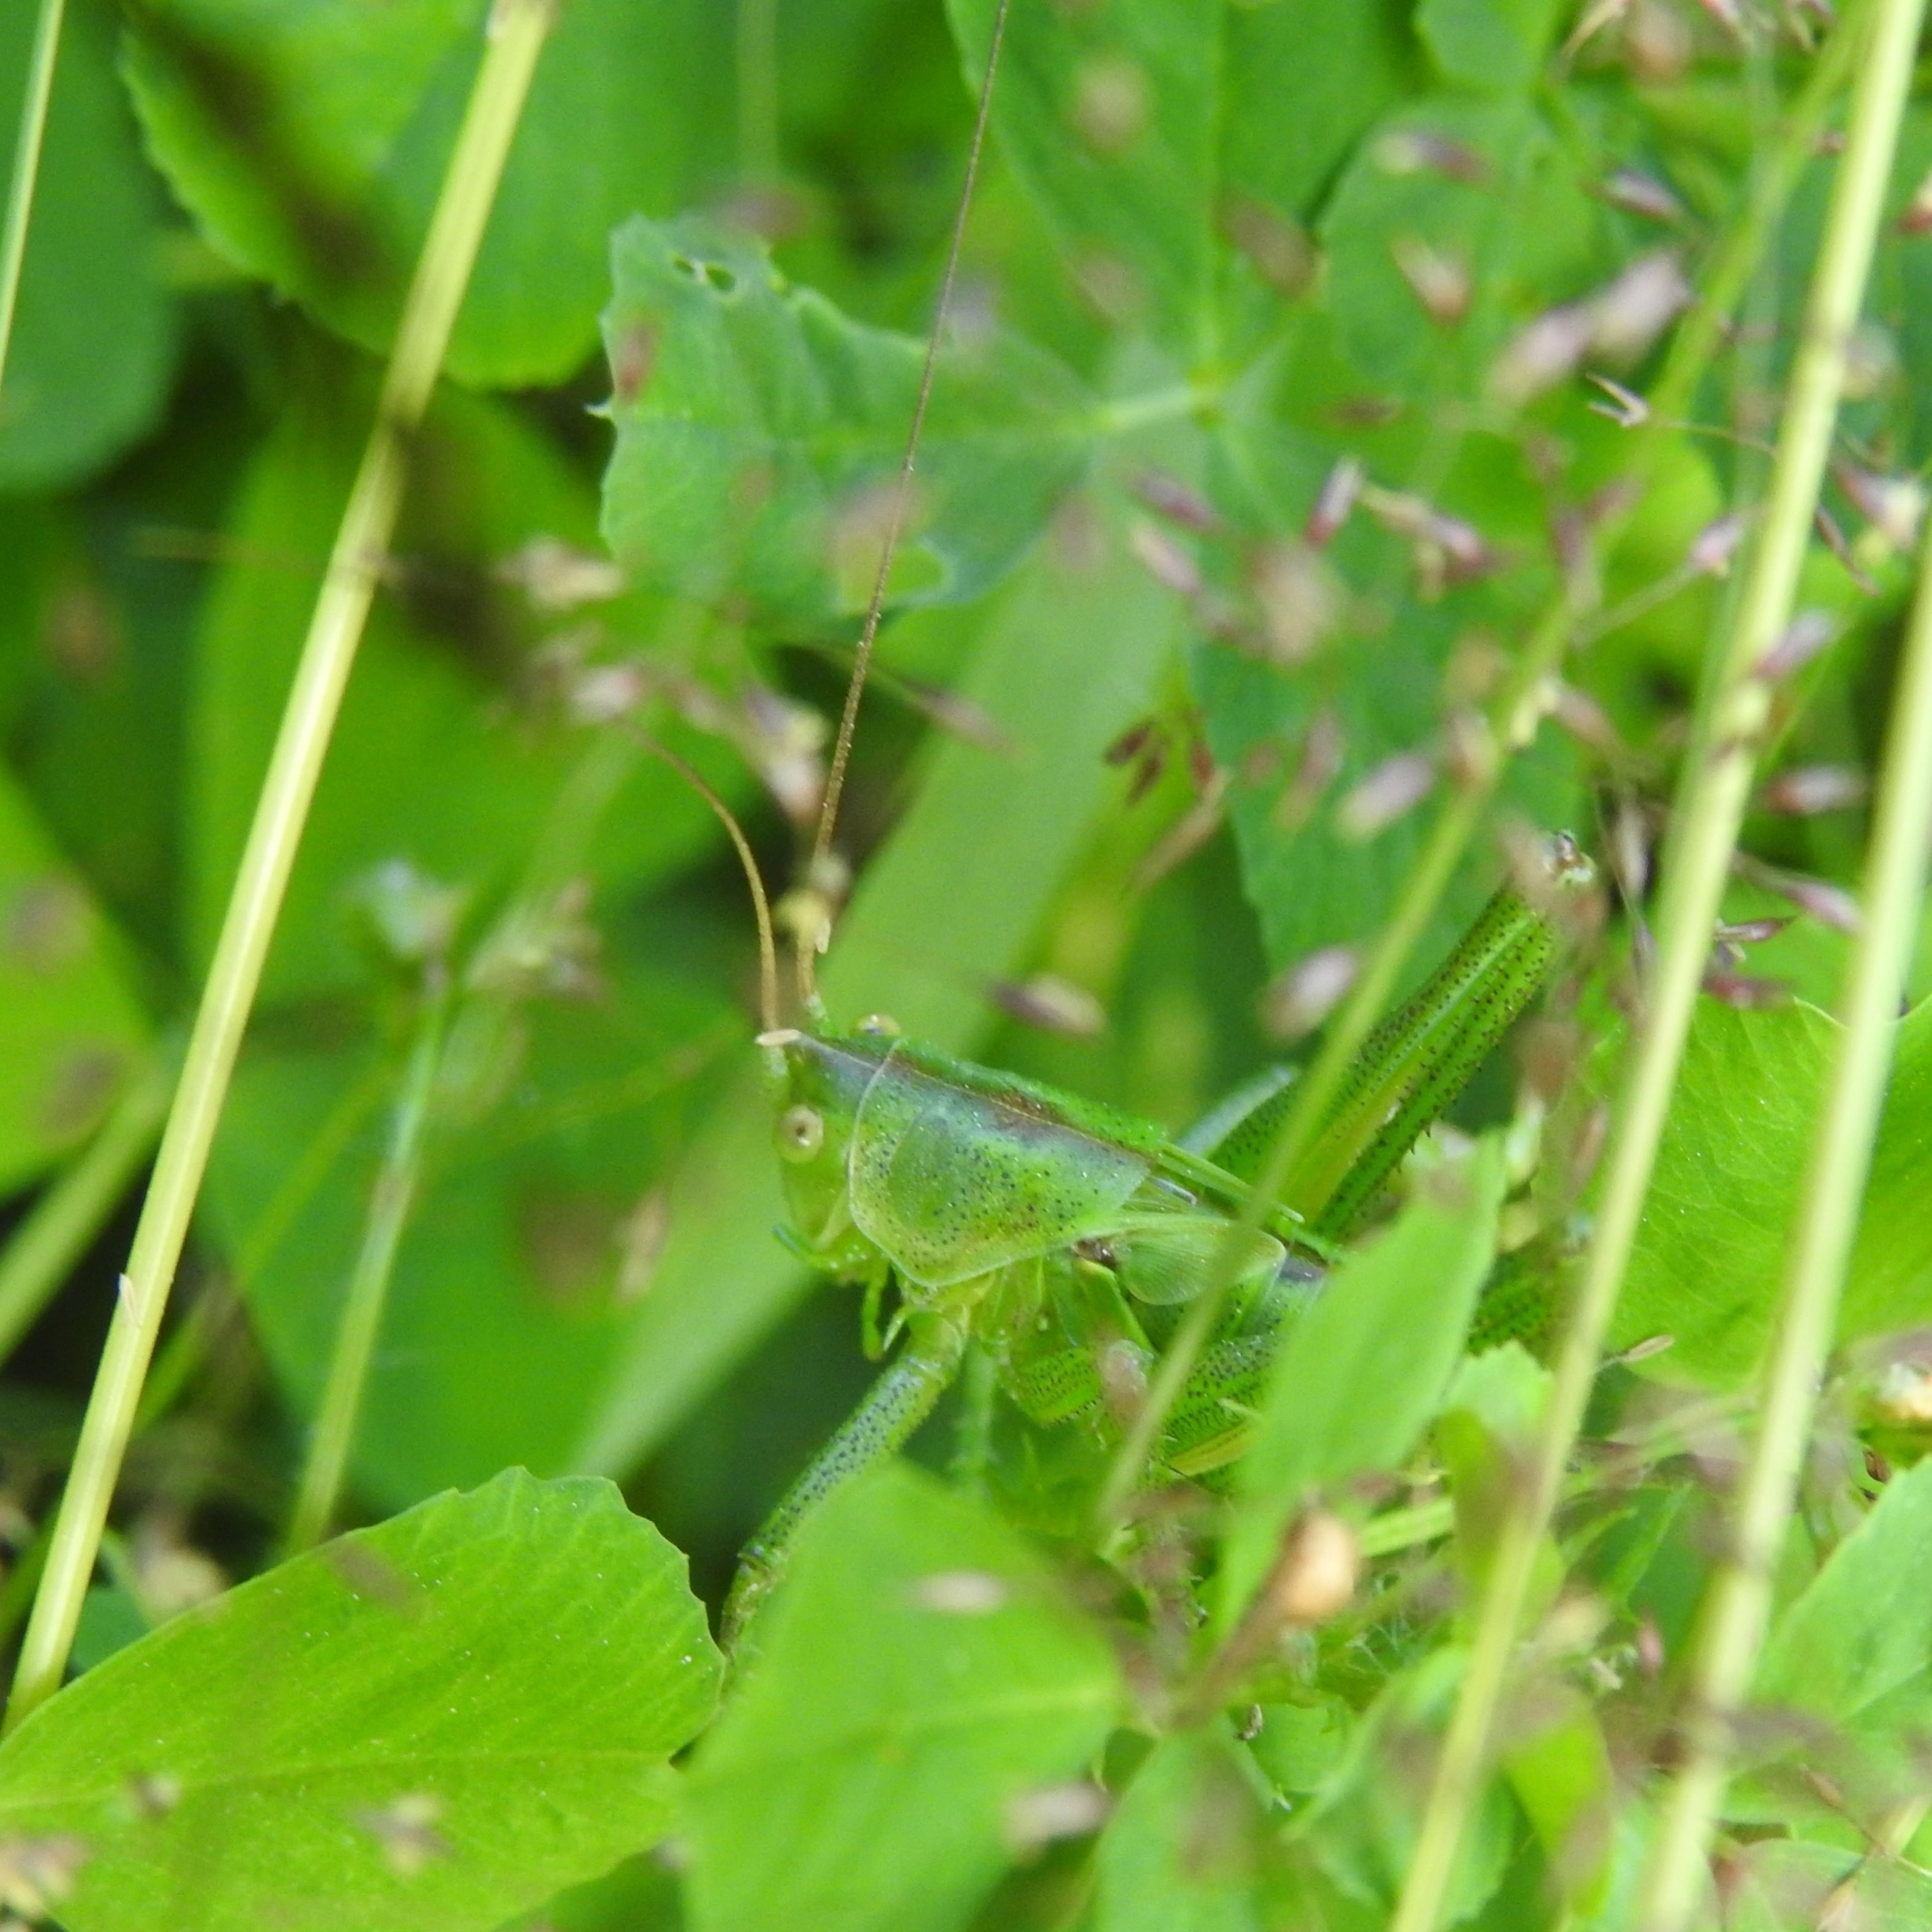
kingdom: Animalia
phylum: Arthropoda
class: Insecta
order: Orthoptera
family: Tettigoniidae
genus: Tettigonia
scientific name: Tettigonia viridissima
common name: Great green bush-cricket
